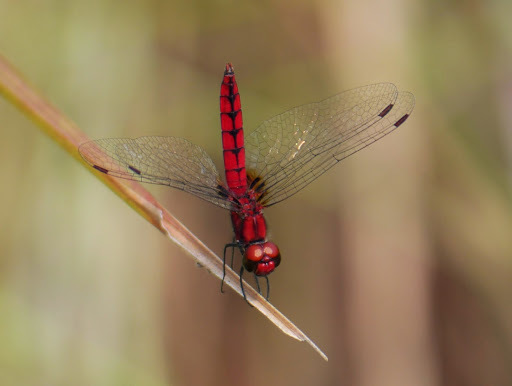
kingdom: Animalia
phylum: Arthropoda
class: Insecta
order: Odonata
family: Libellulidae
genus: Aethriamanta
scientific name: Aethriamanta rezia
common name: Pygmy basker
